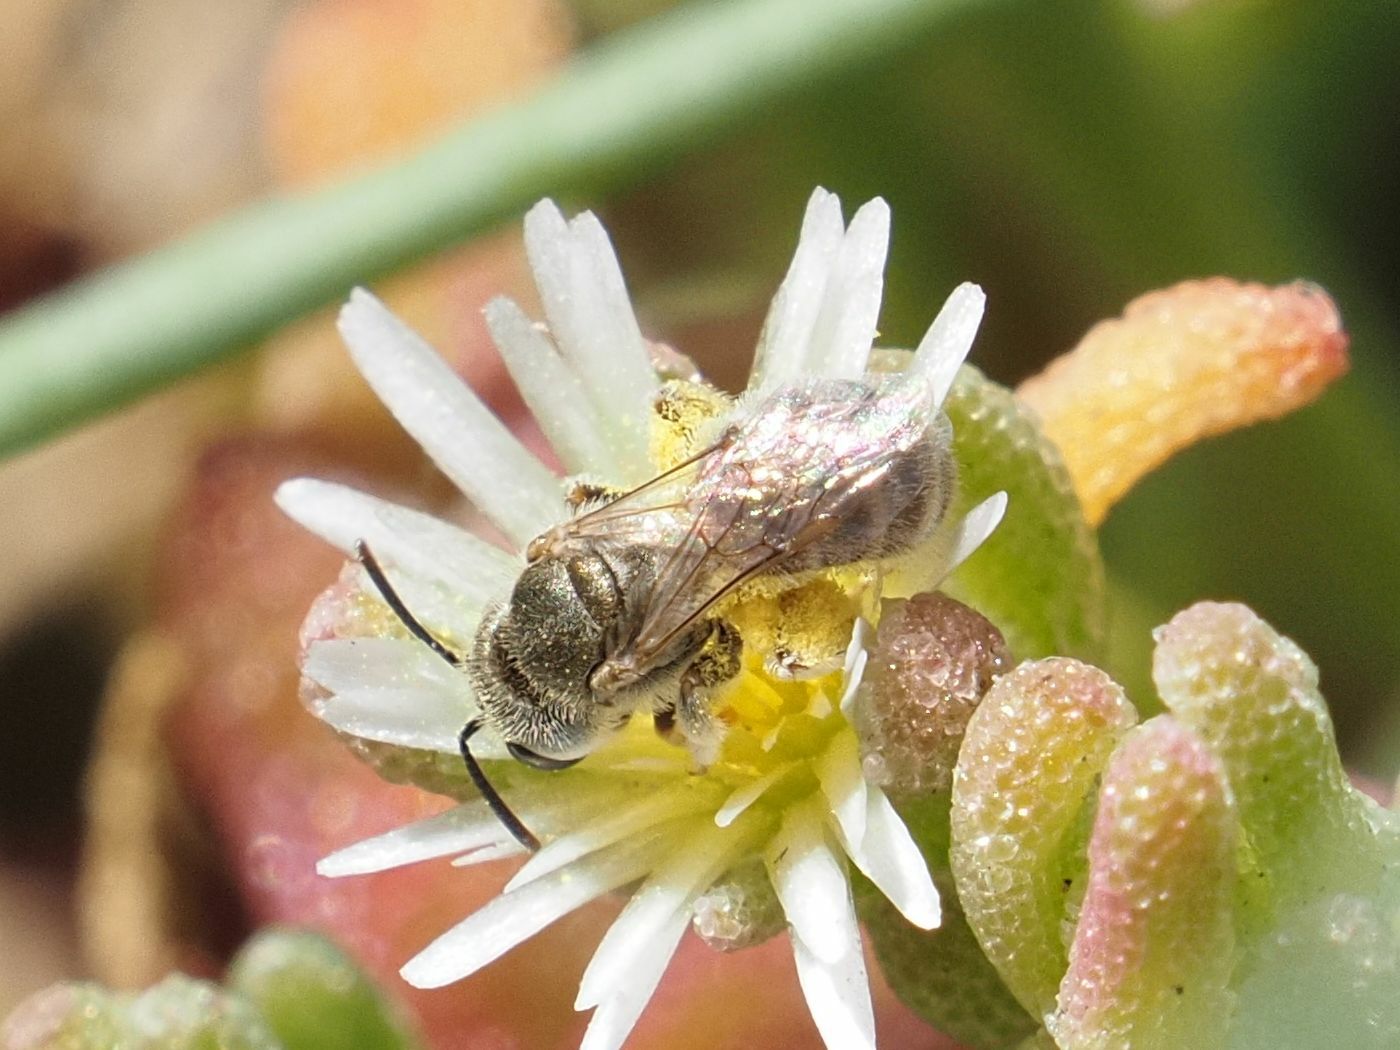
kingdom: Animalia
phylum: Arthropoda
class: Insecta
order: Hymenoptera
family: Halictidae
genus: Halictus
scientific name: Halictus concinnus
